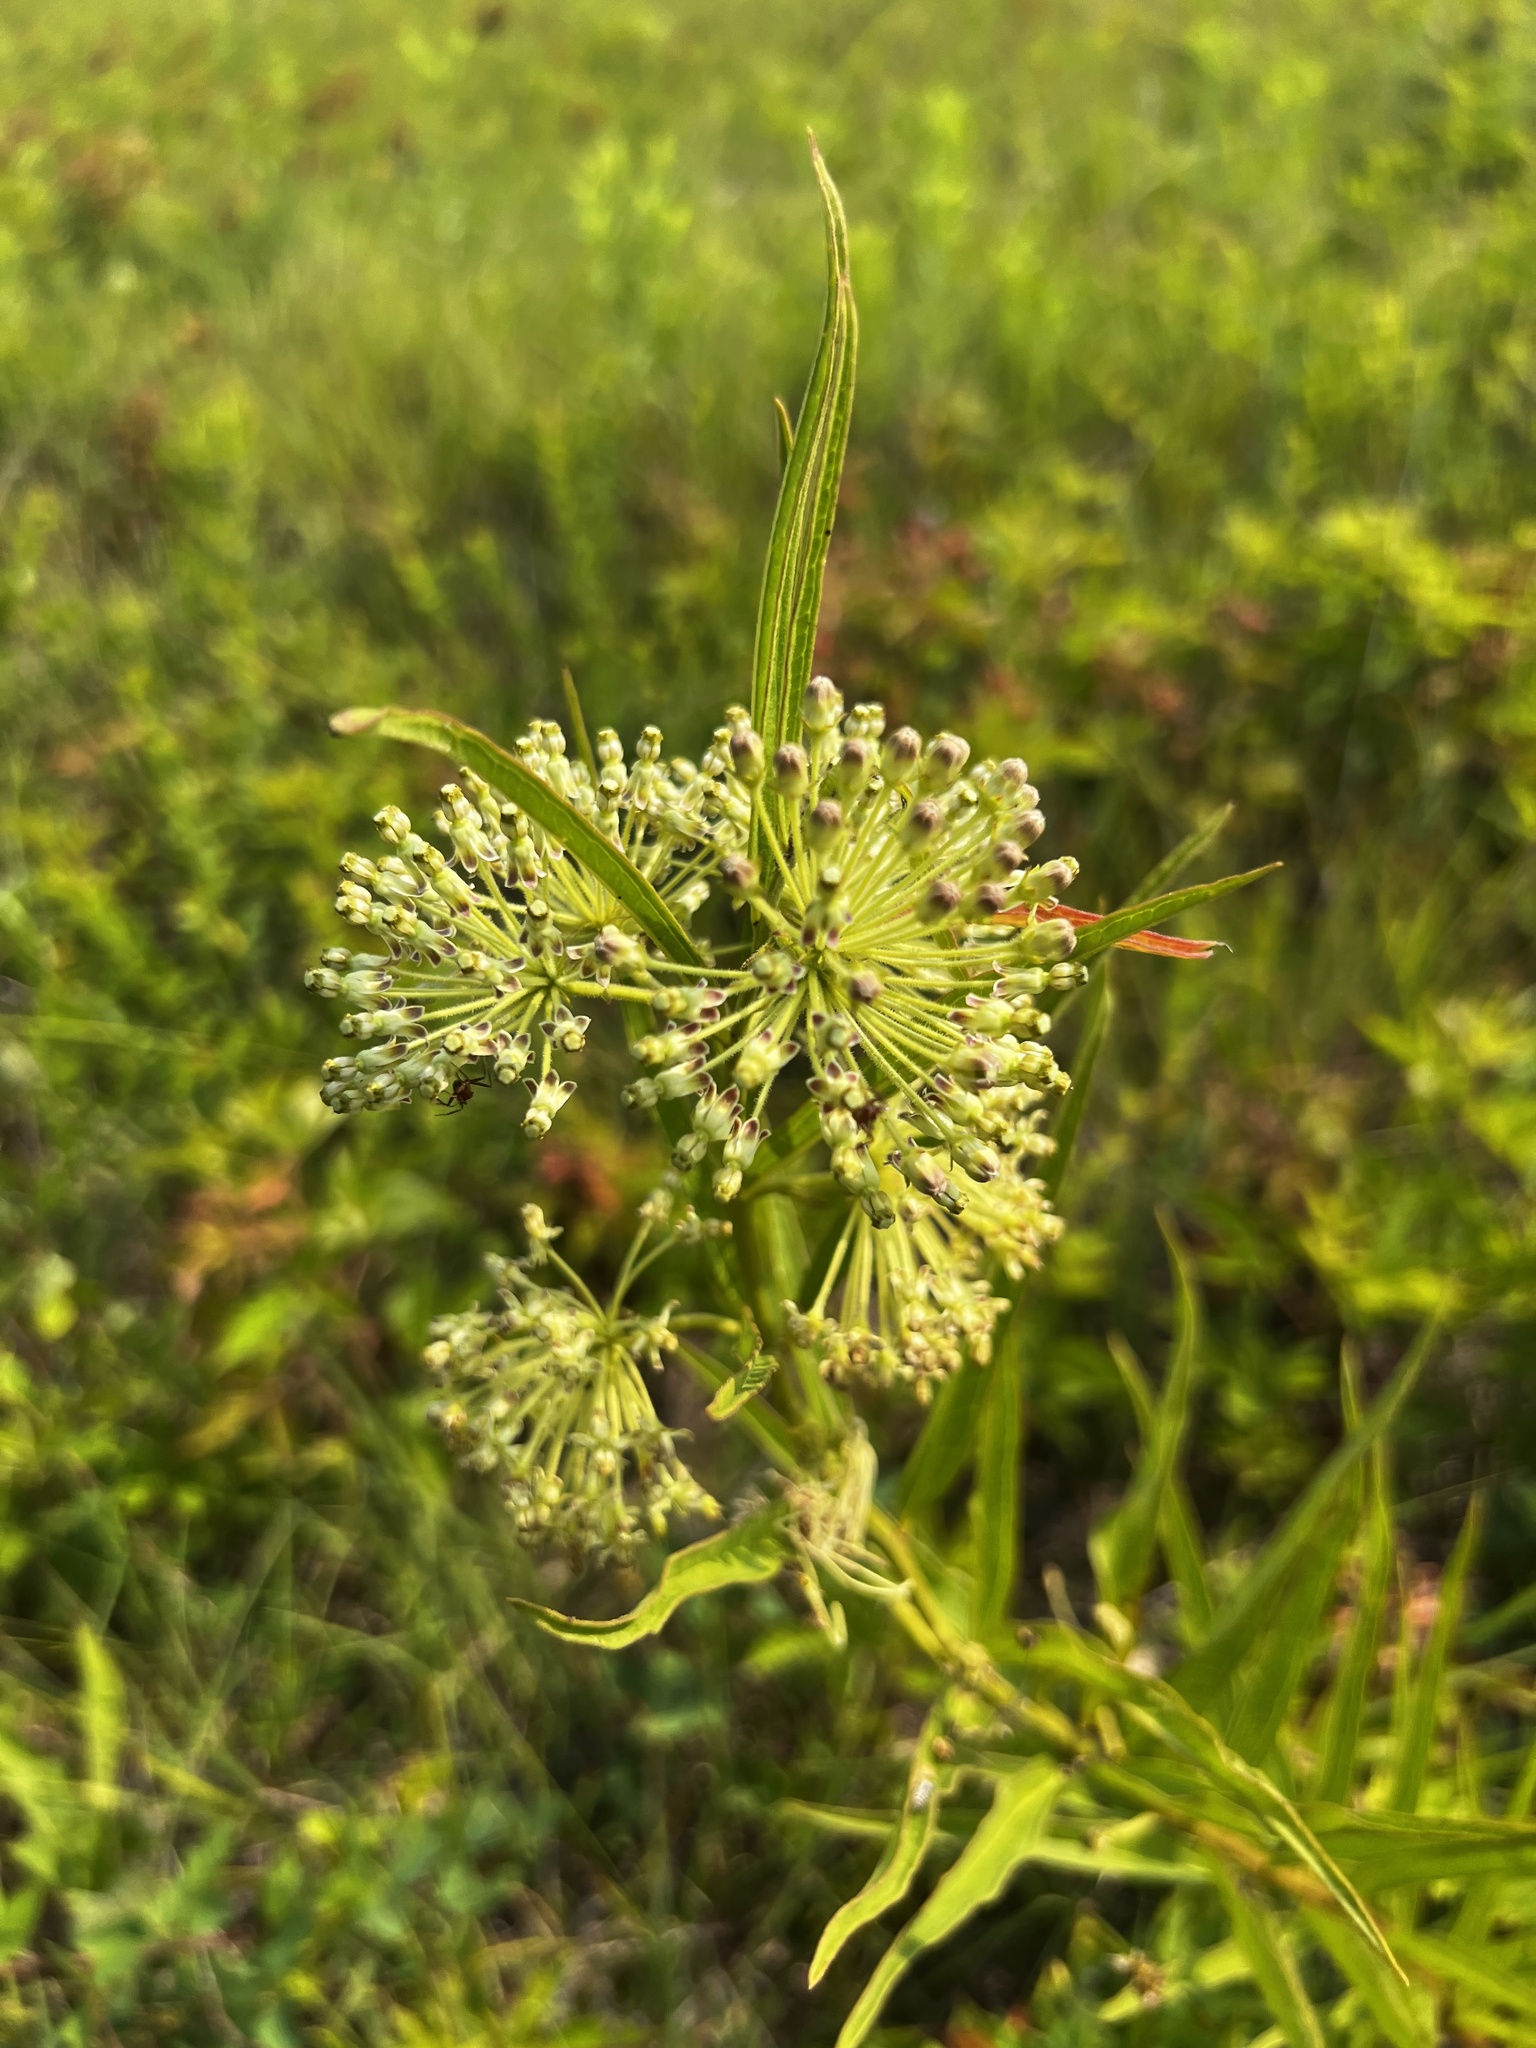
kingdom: Plantae
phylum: Tracheophyta
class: Magnoliopsida
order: Gentianales
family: Apocynaceae
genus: Asclepias
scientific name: Asclepias hirtella
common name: Prairie milkweed
